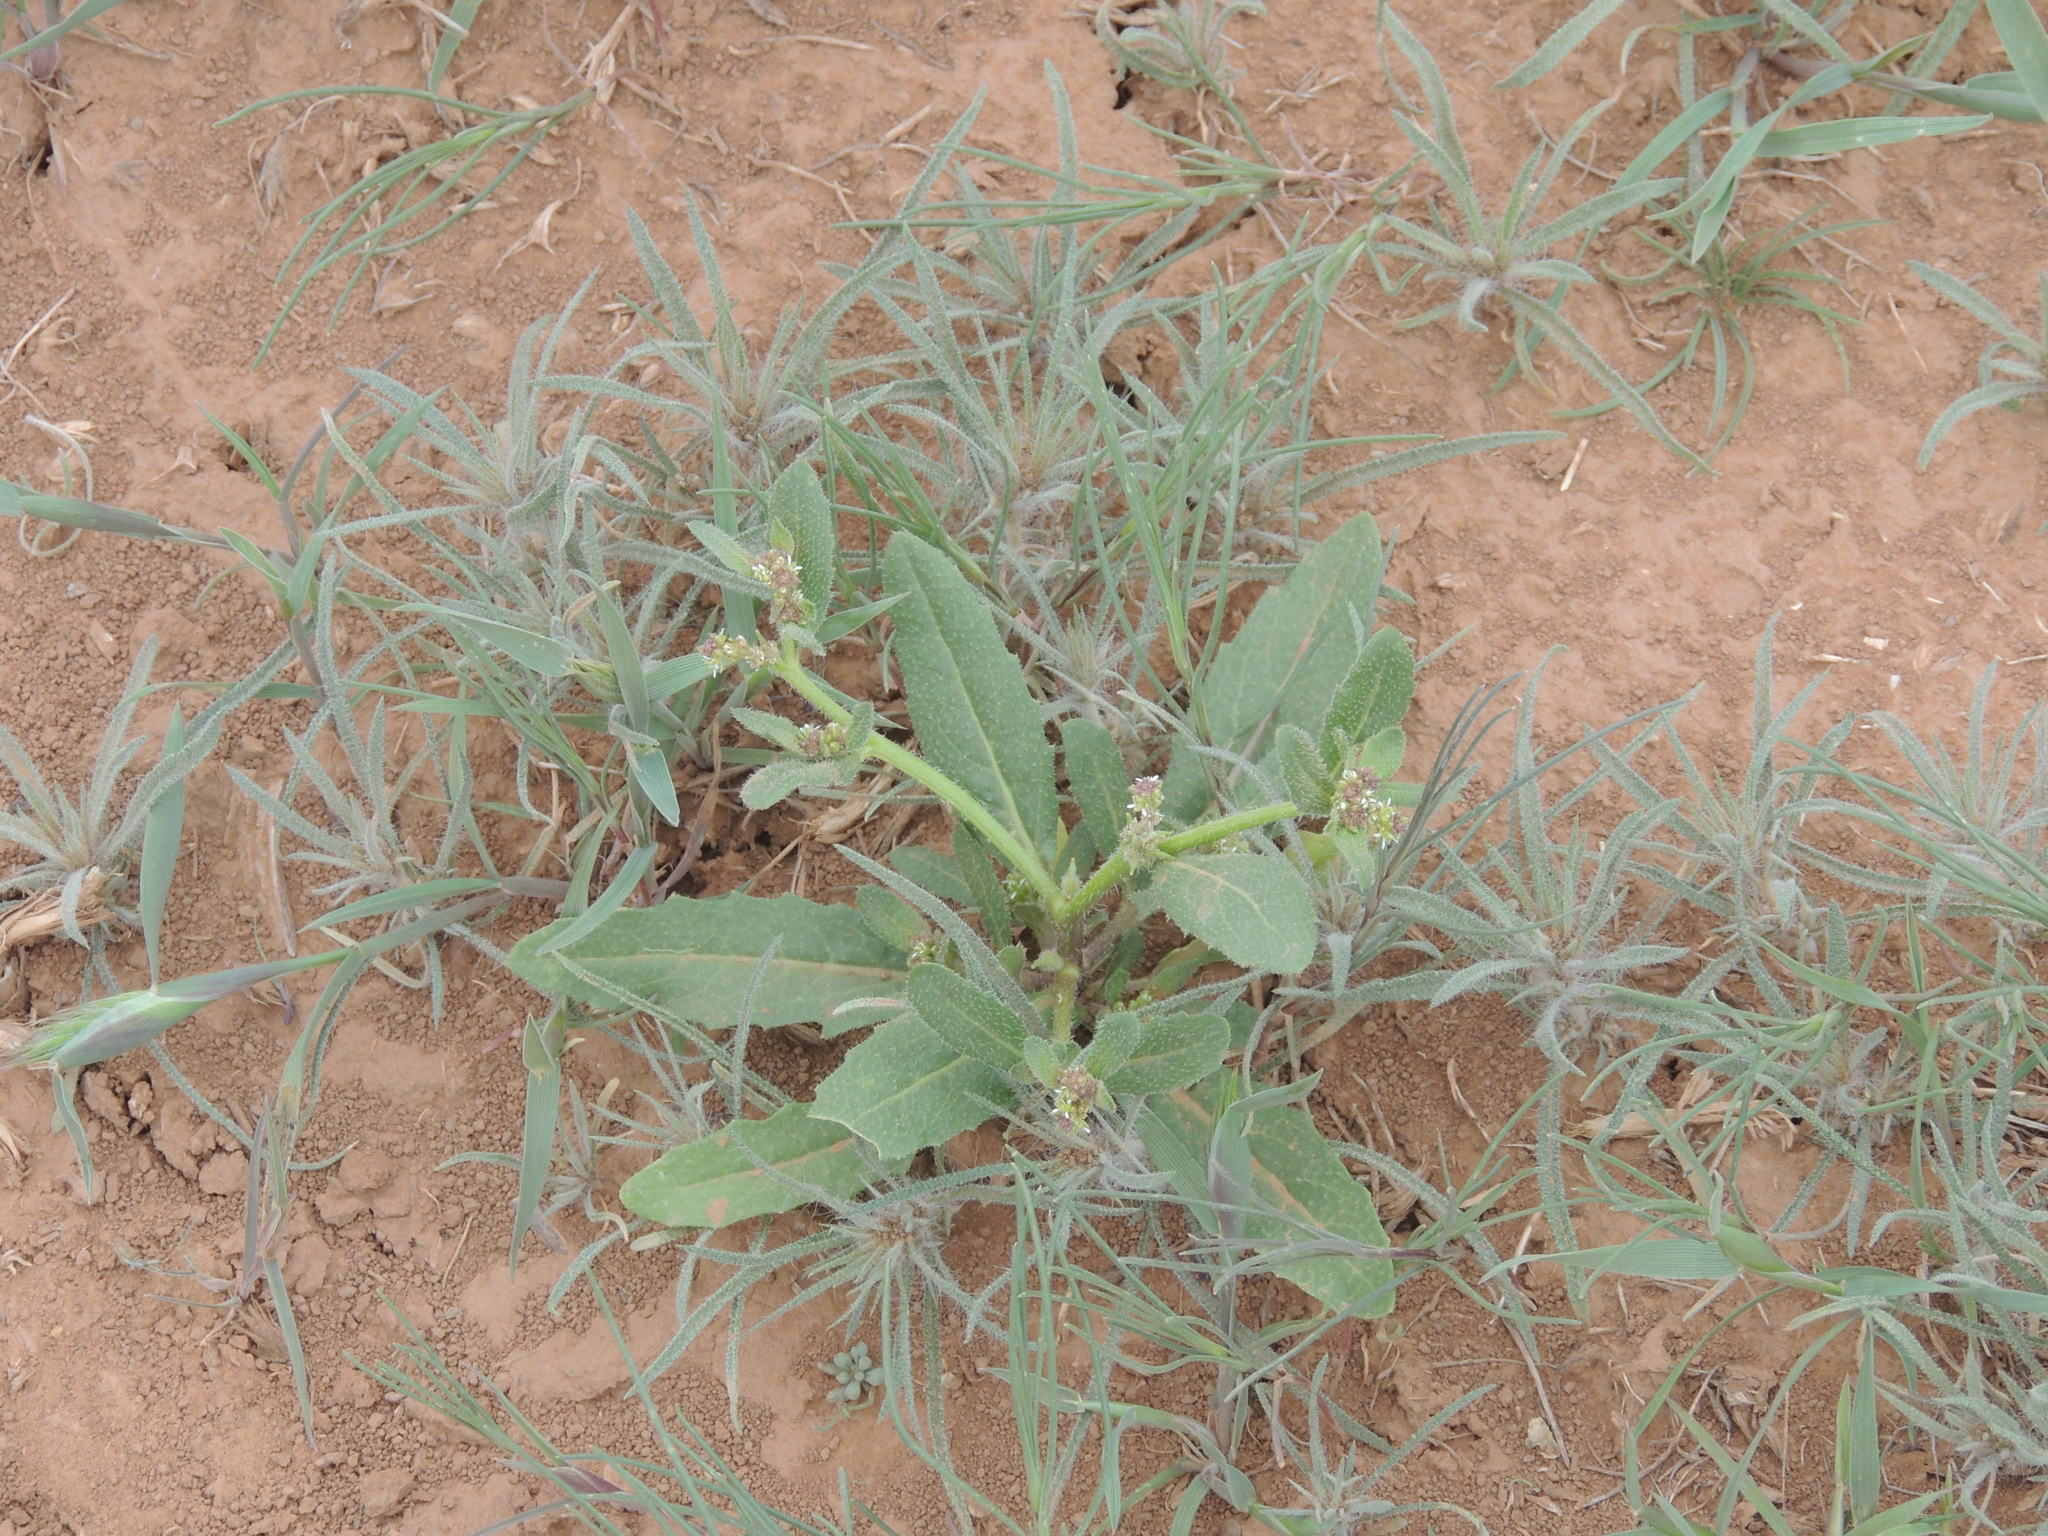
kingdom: Plantae
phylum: Tracheophyta
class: Magnoliopsida
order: Brassicales
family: Brassicaceae
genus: Euclidium
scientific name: Euclidium syriacum
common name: Syrian mustard
